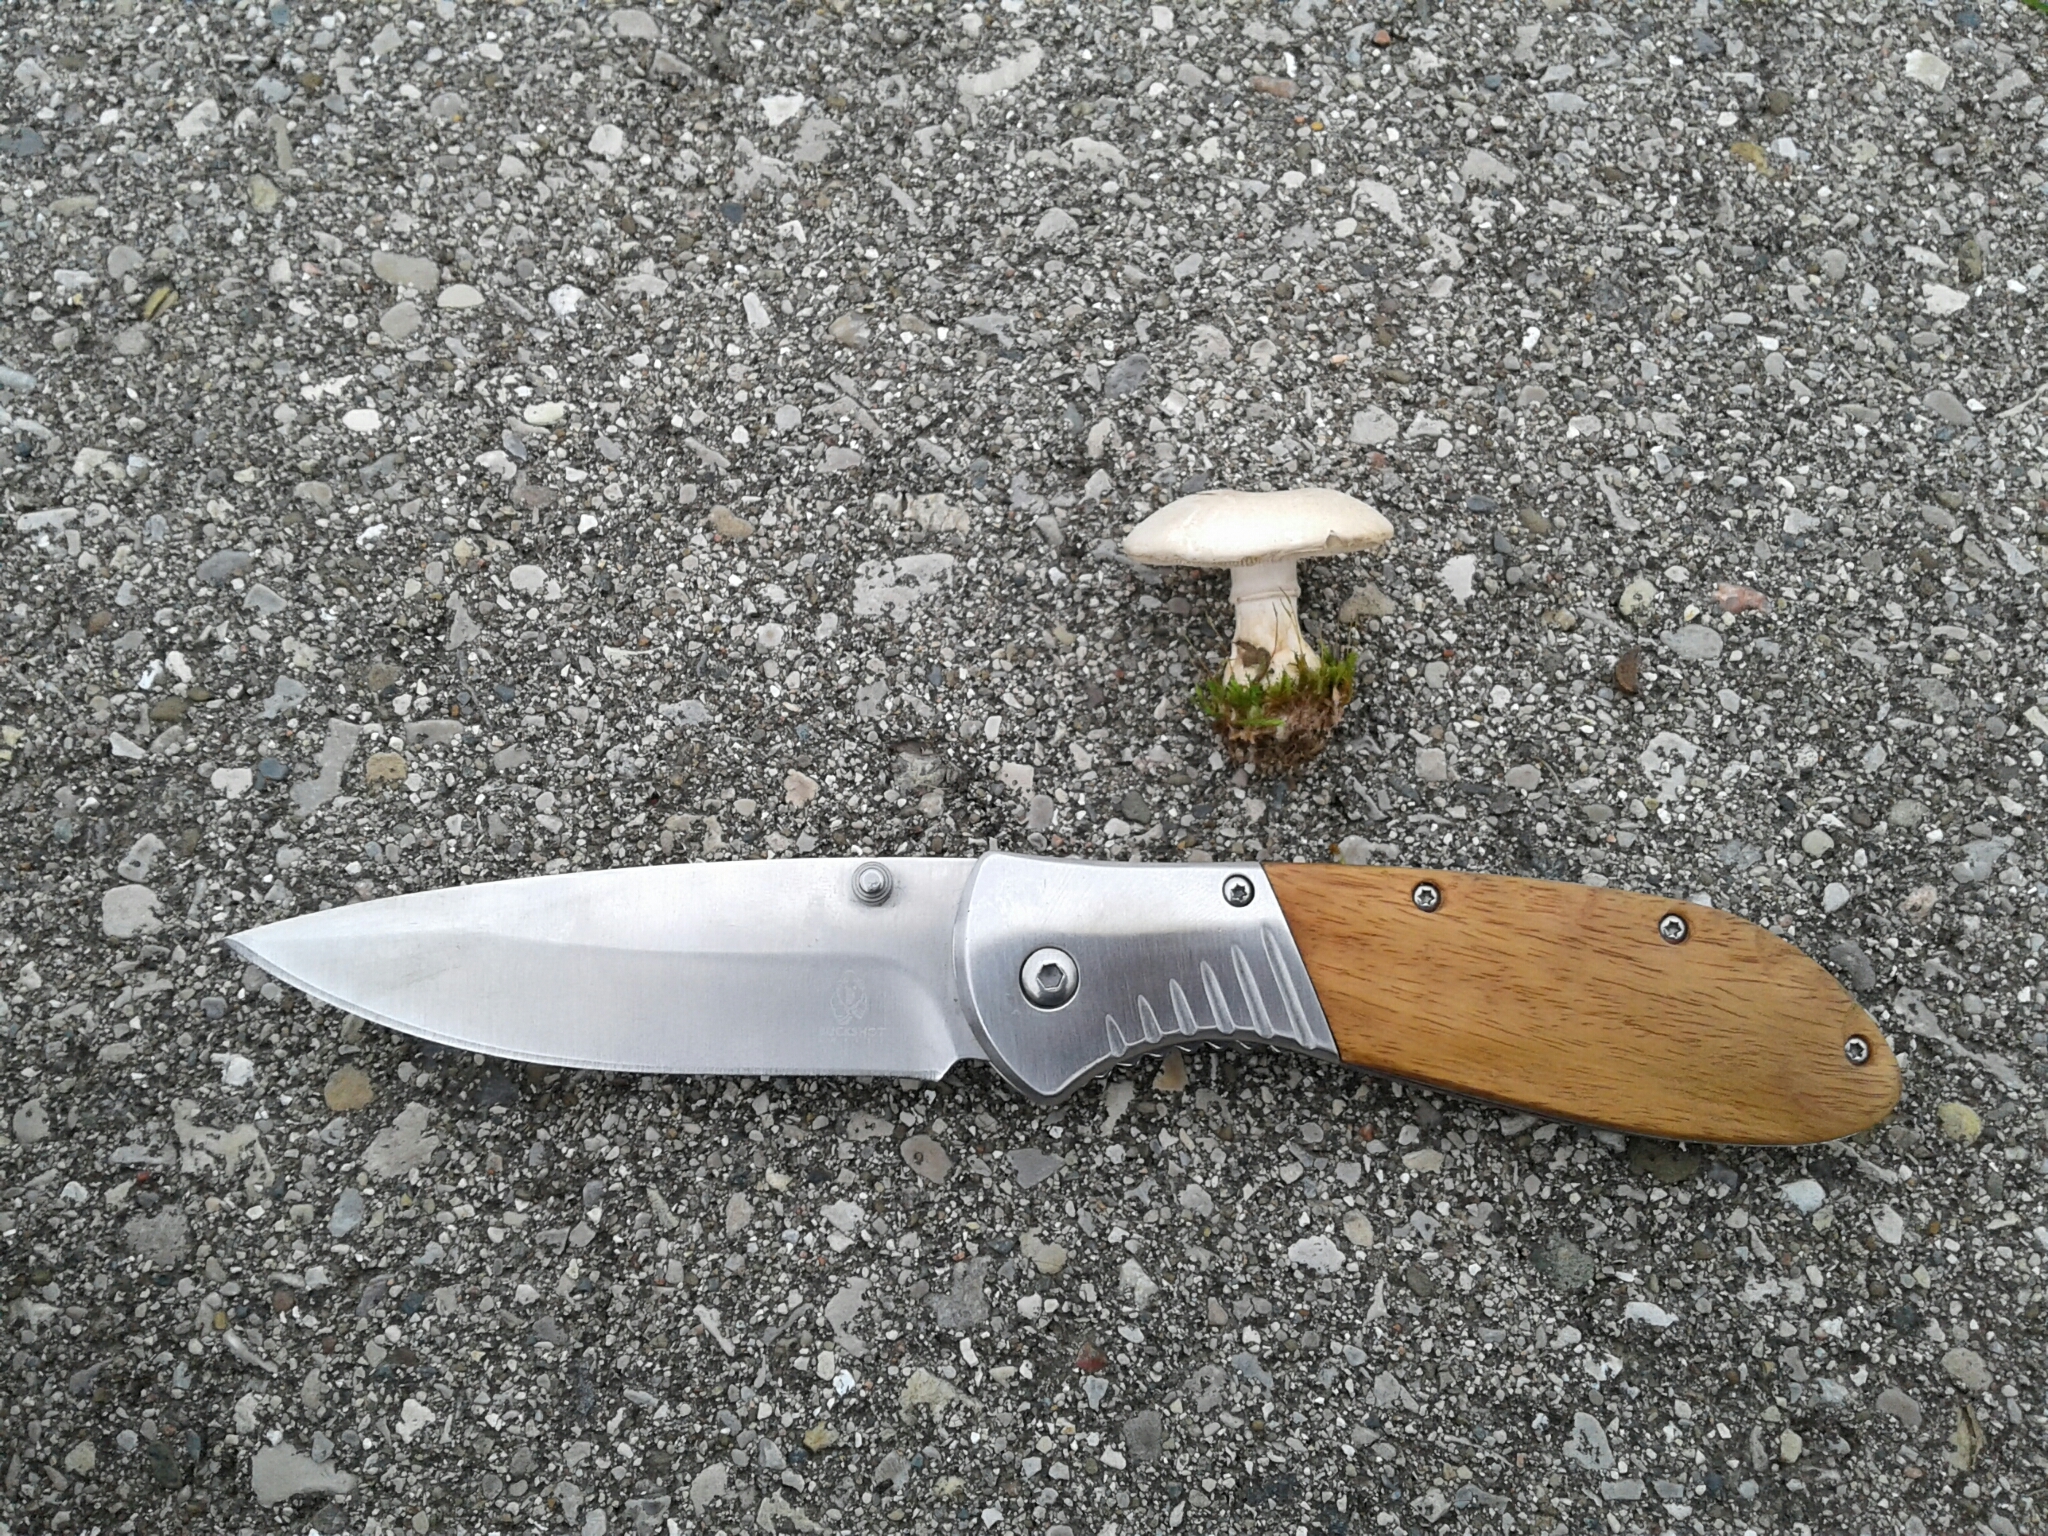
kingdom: Fungi
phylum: Basidiomycota
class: Agaricomycetes
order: Agaricales
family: Agaricaceae
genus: Leucoagaricus
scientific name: Leucoagaricus leucothites
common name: White dapperling
